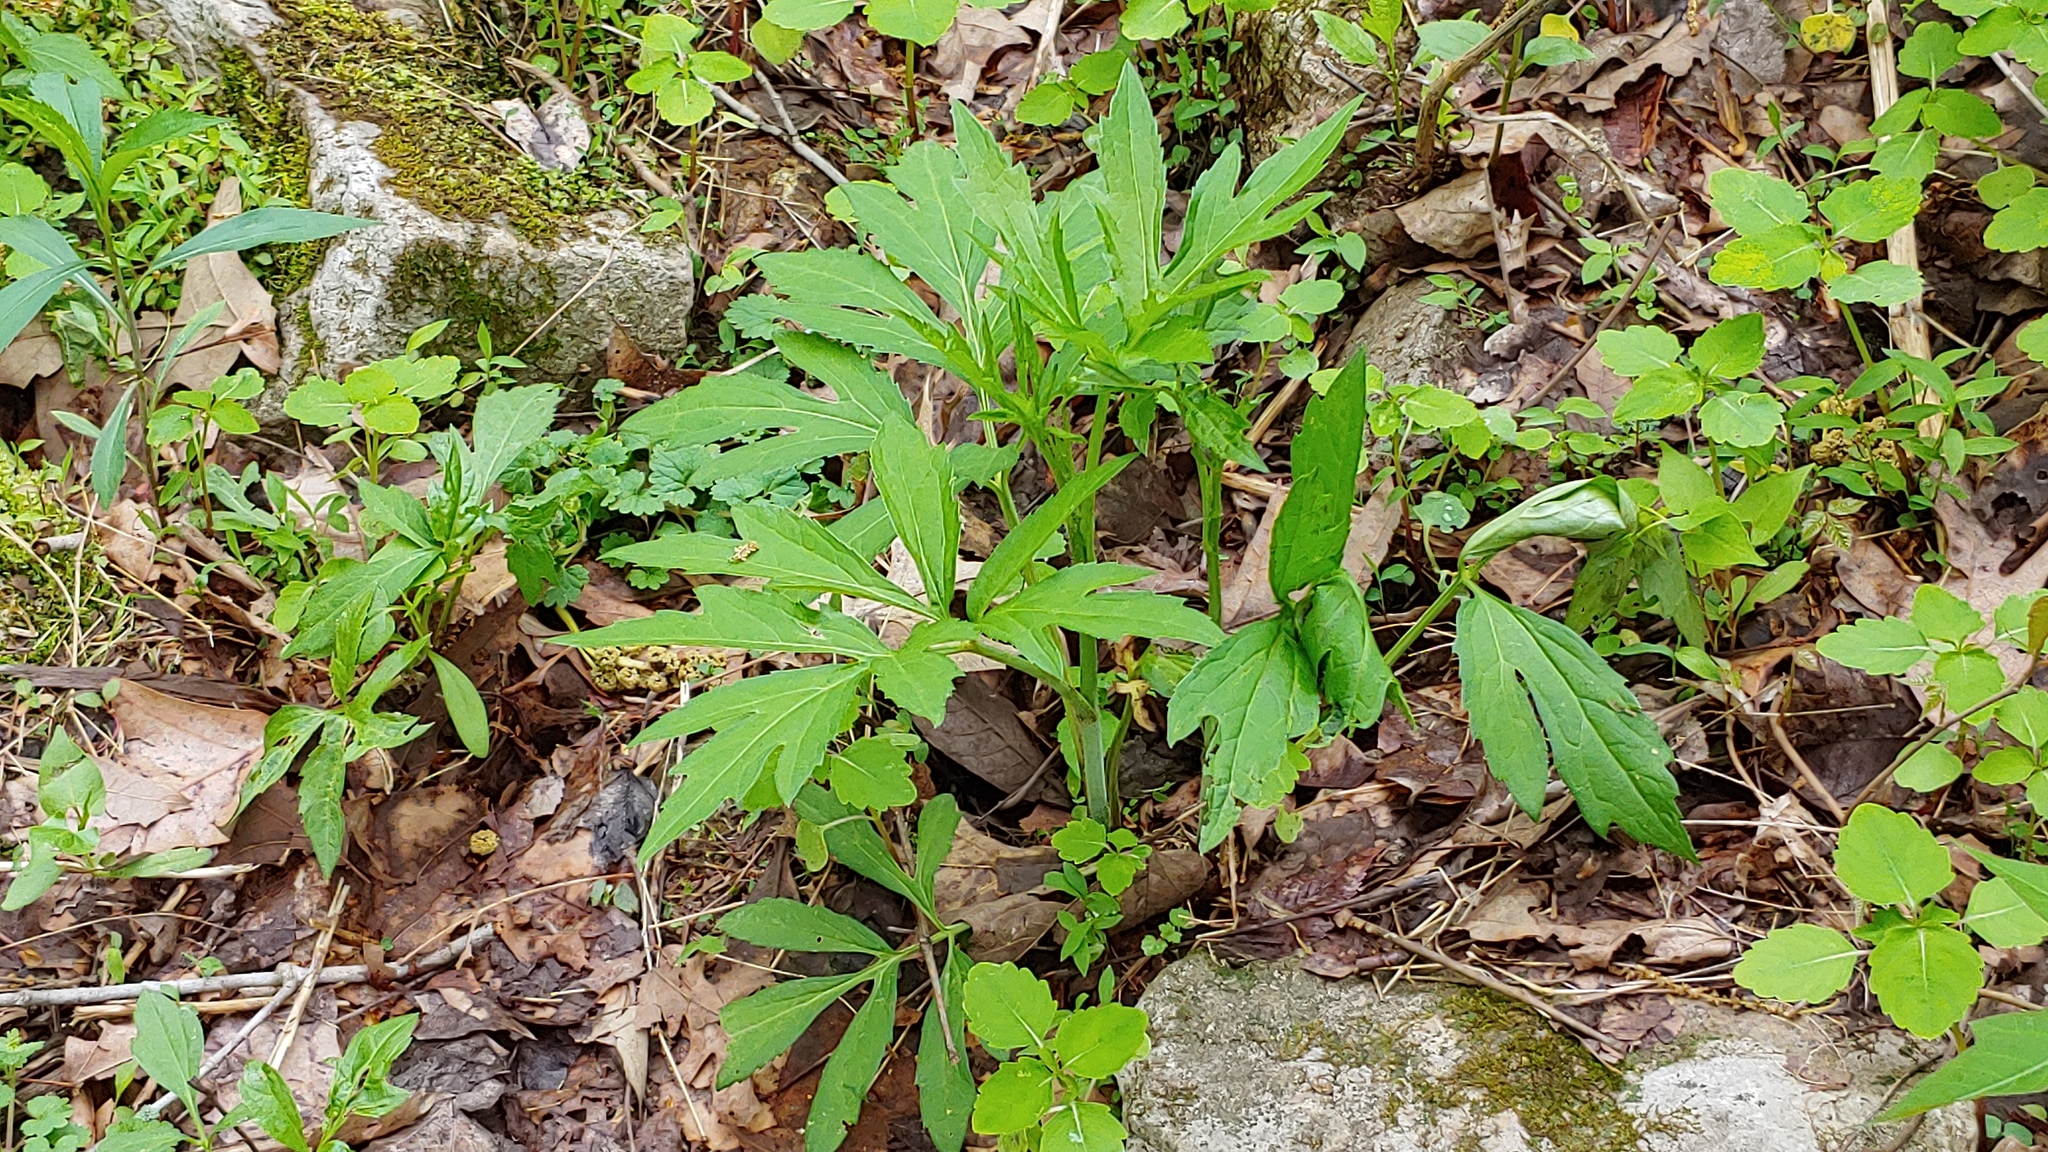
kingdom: Plantae
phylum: Tracheophyta
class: Magnoliopsida
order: Asterales
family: Asteraceae
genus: Rudbeckia
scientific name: Rudbeckia laciniata
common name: Coneflower
